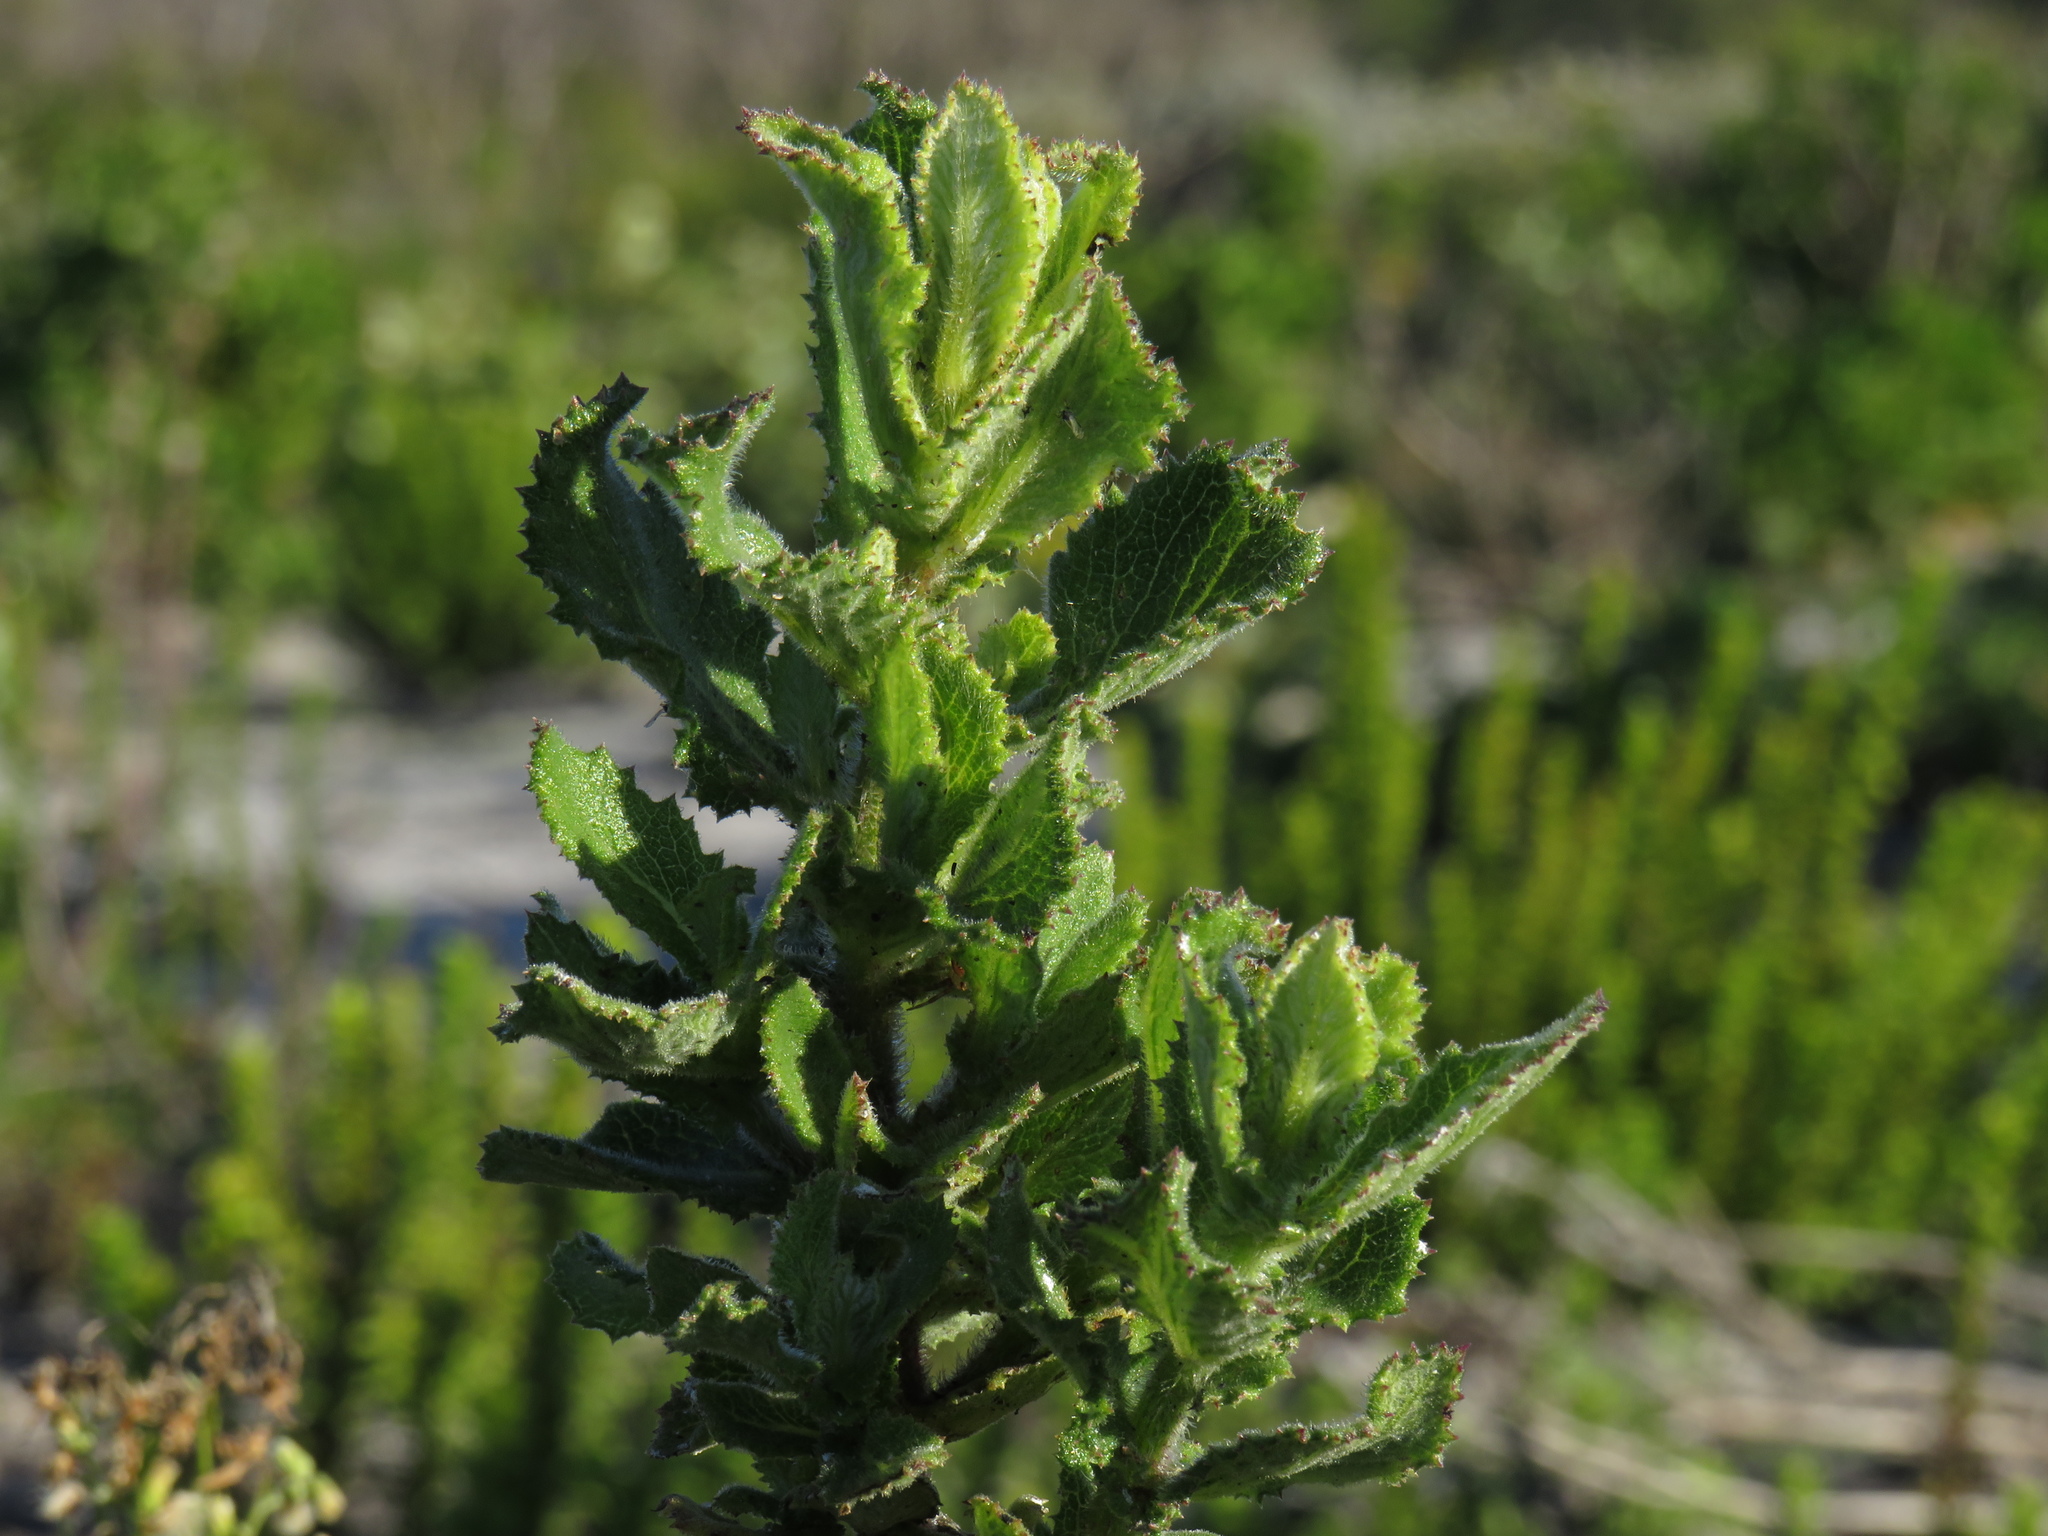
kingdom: Plantae
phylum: Tracheophyta
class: Magnoliopsida
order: Asterales
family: Asteraceae
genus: Senecio
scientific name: Senecio rigidus
